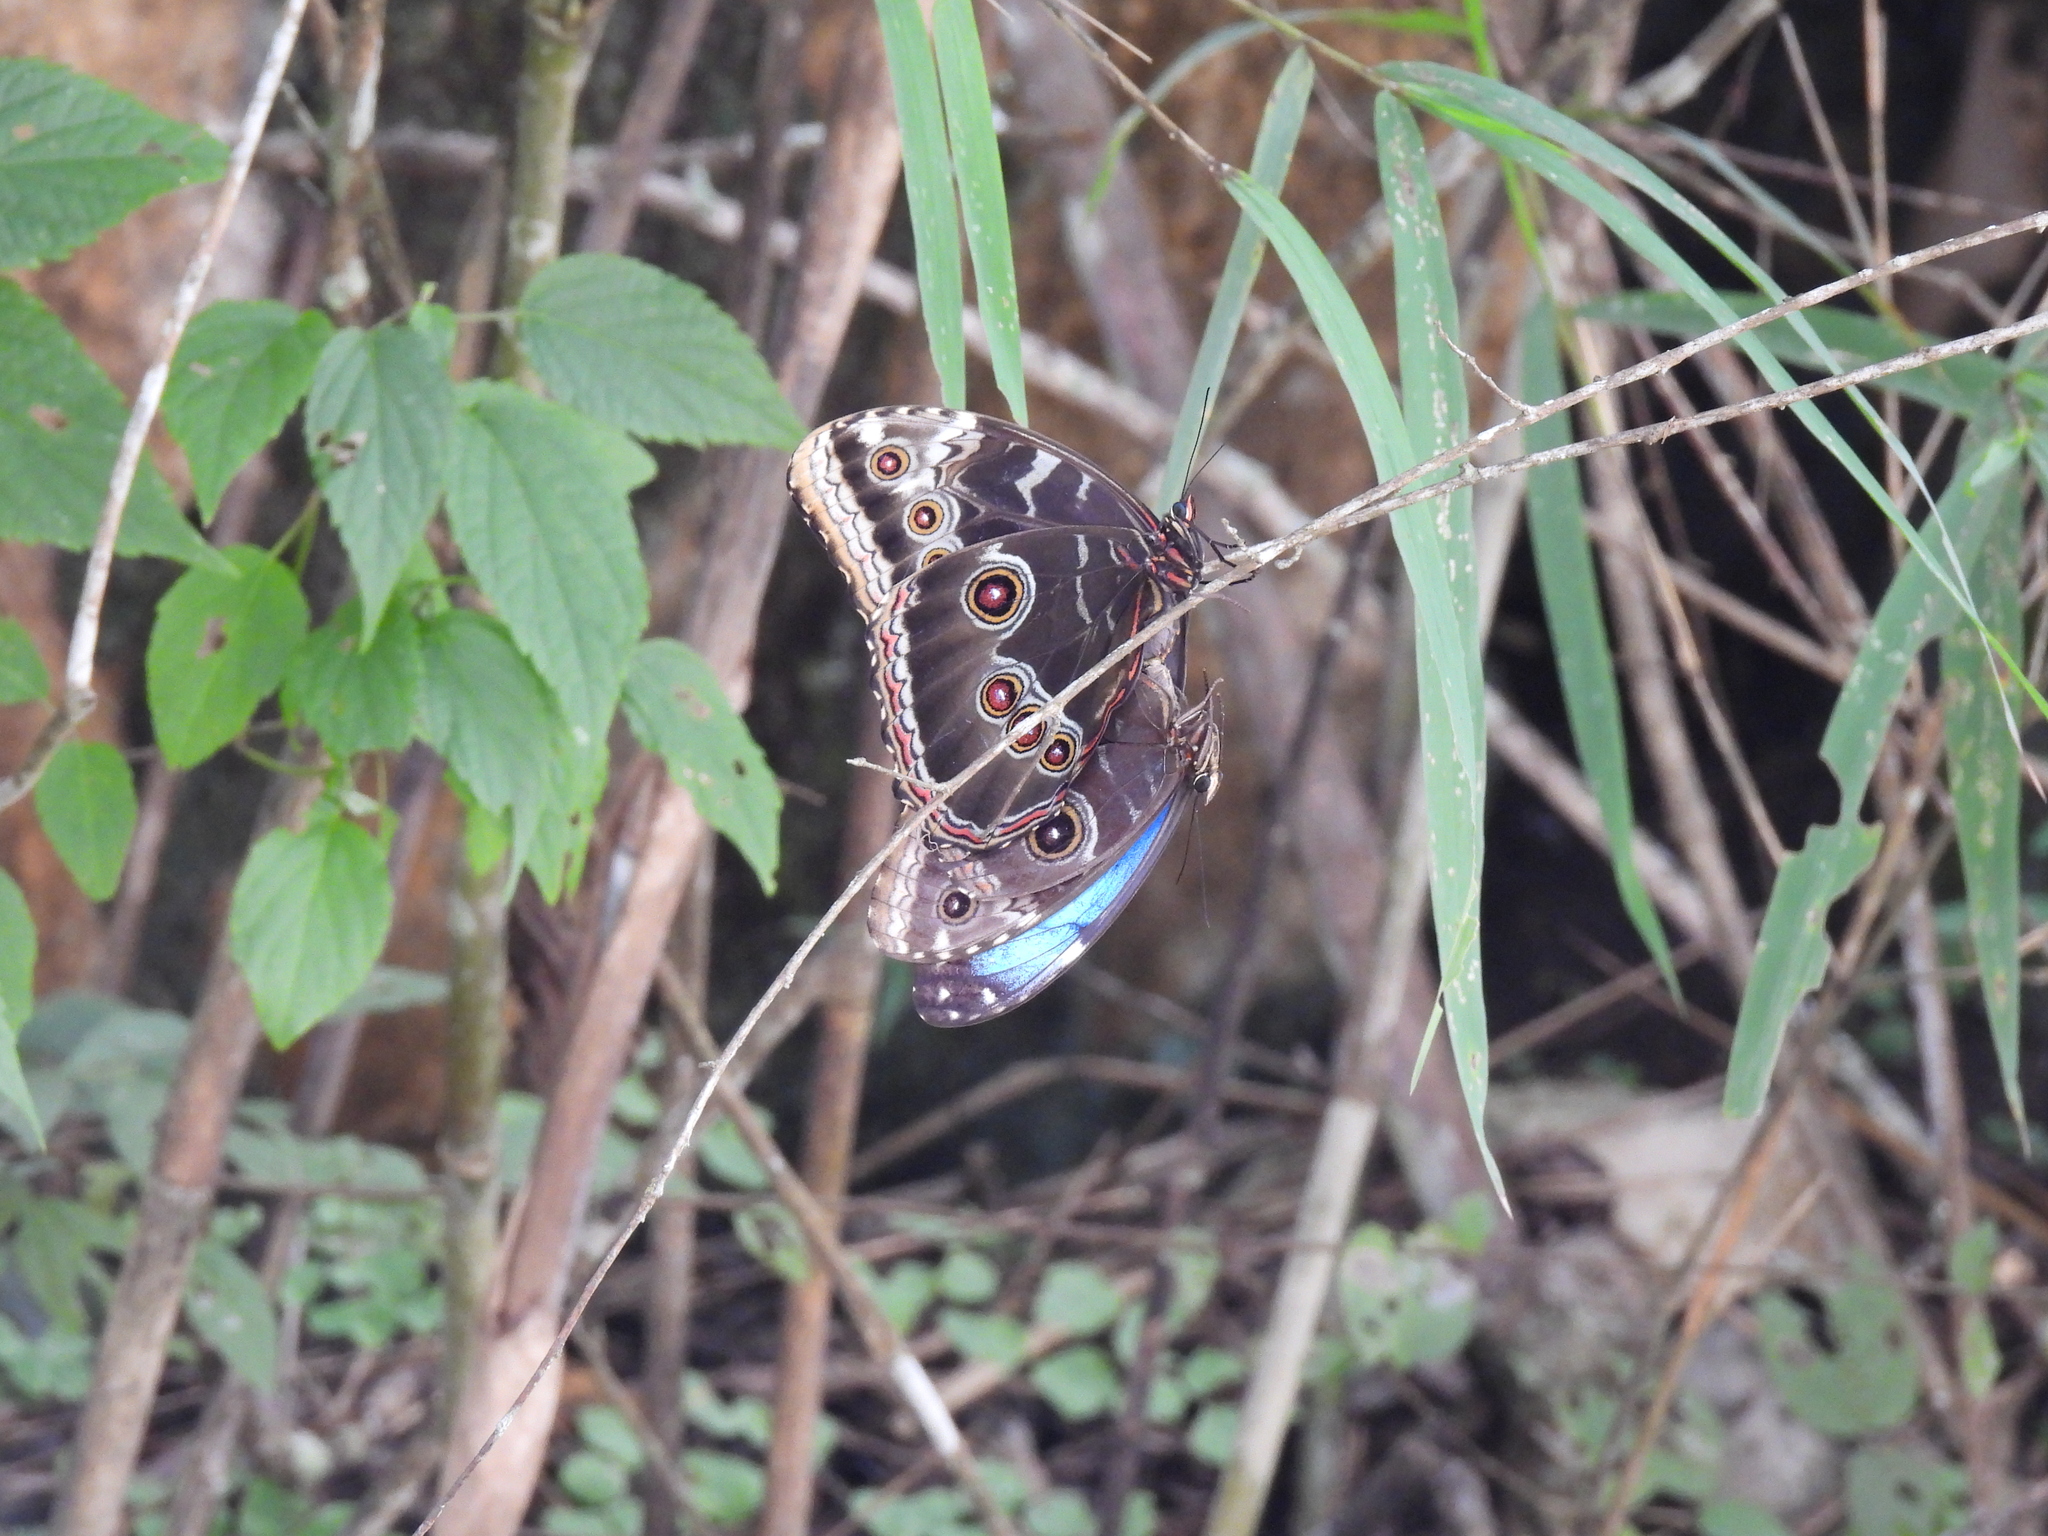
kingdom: Animalia
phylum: Arthropoda
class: Insecta
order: Lepidoptera
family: Nymphalidae
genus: Morpho
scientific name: Morpho helenor
